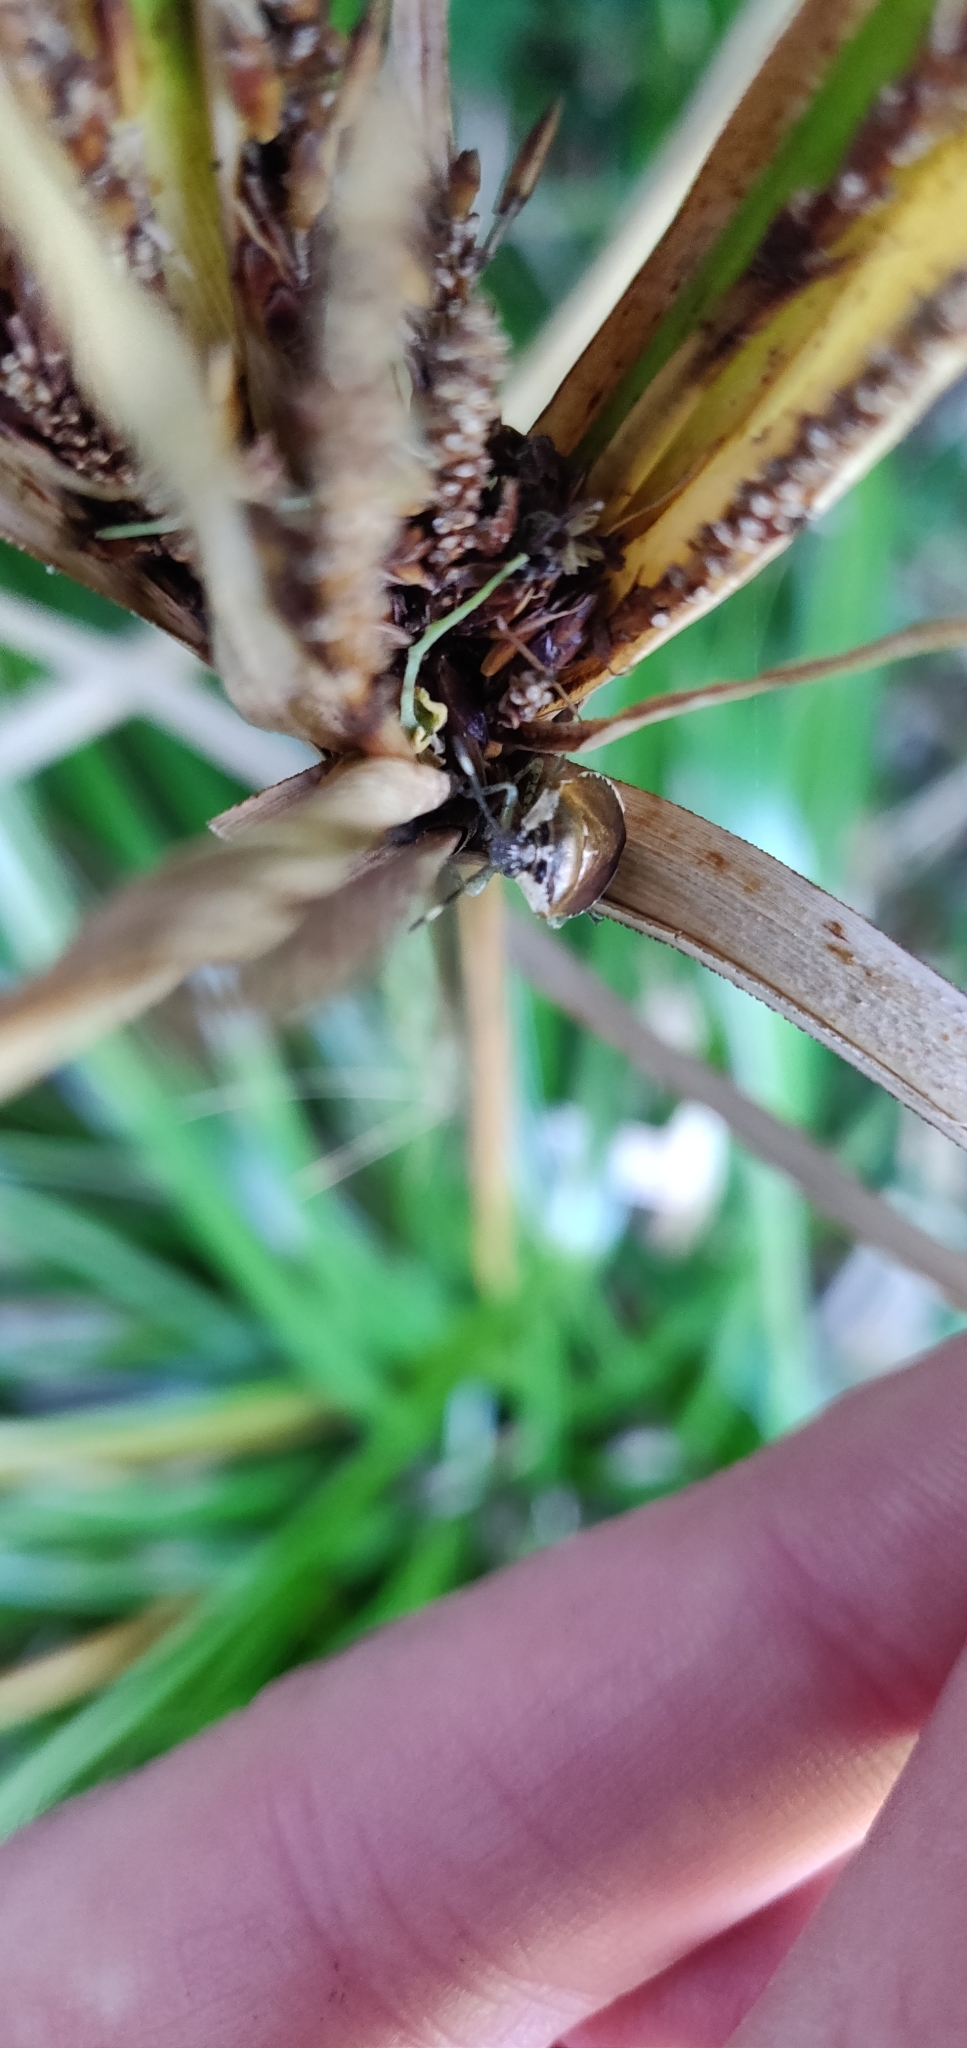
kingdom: Animalia
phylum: Arthropoda
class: Insecta
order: Hemiptera
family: Pentatomidae
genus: Monteithiella
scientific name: Monteithiella
